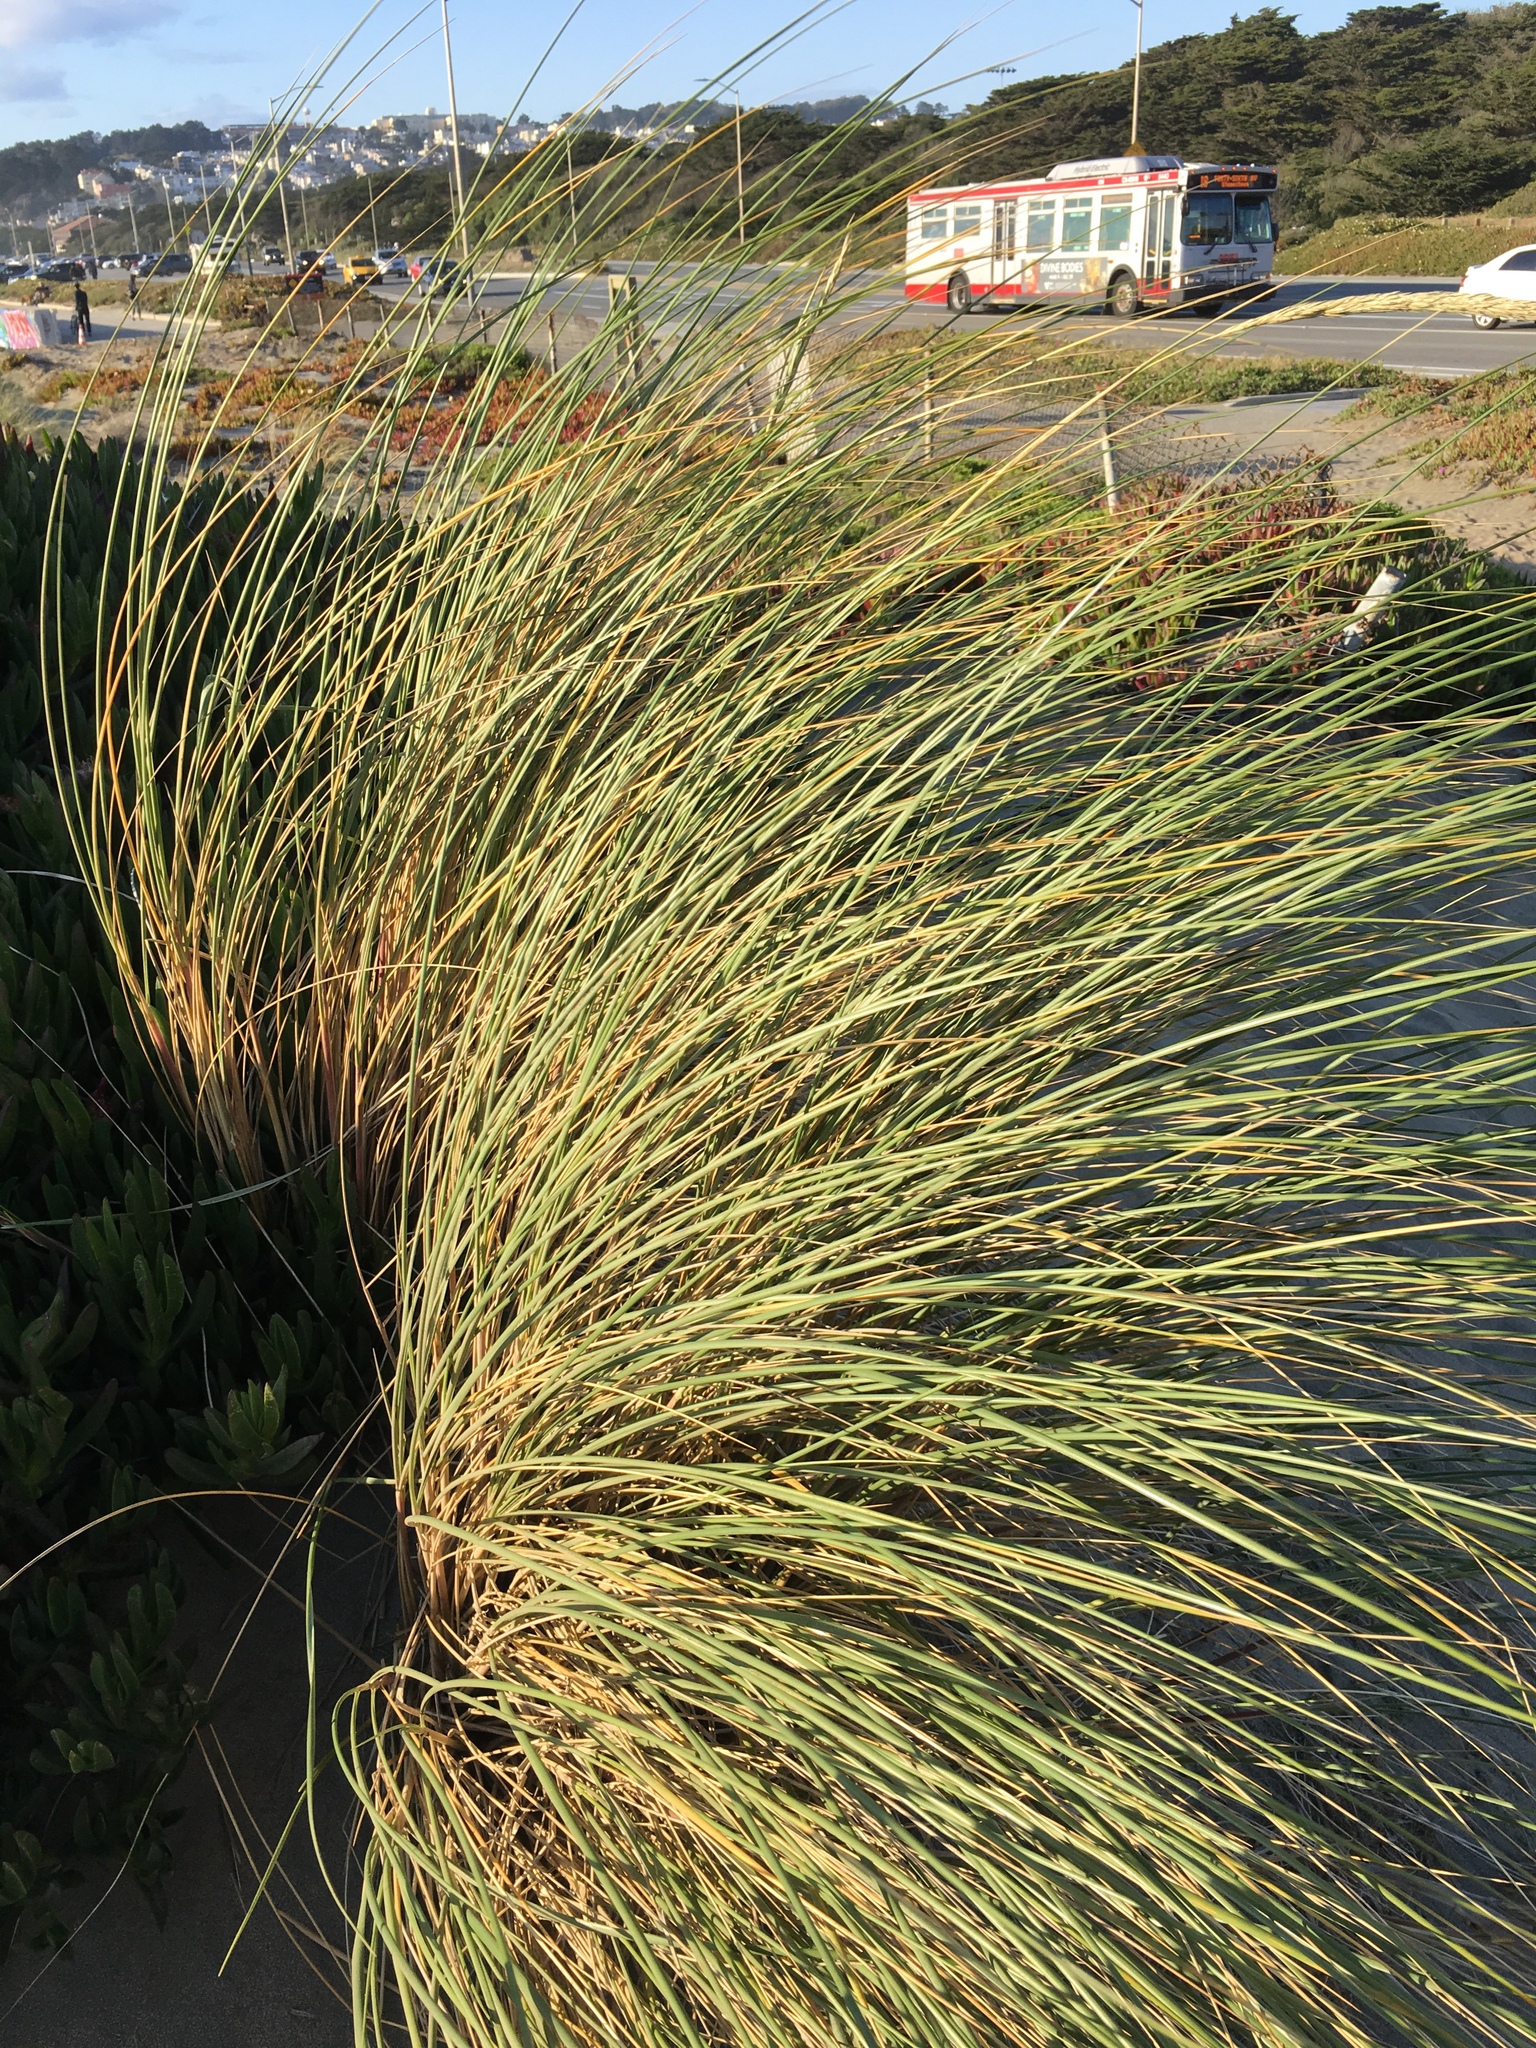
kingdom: Plantae
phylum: Tracheophyta
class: Liliopsida
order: Poales
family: Poaceae
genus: Calamagrostis
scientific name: Calamagrostis arenaria
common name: European beachgrass
